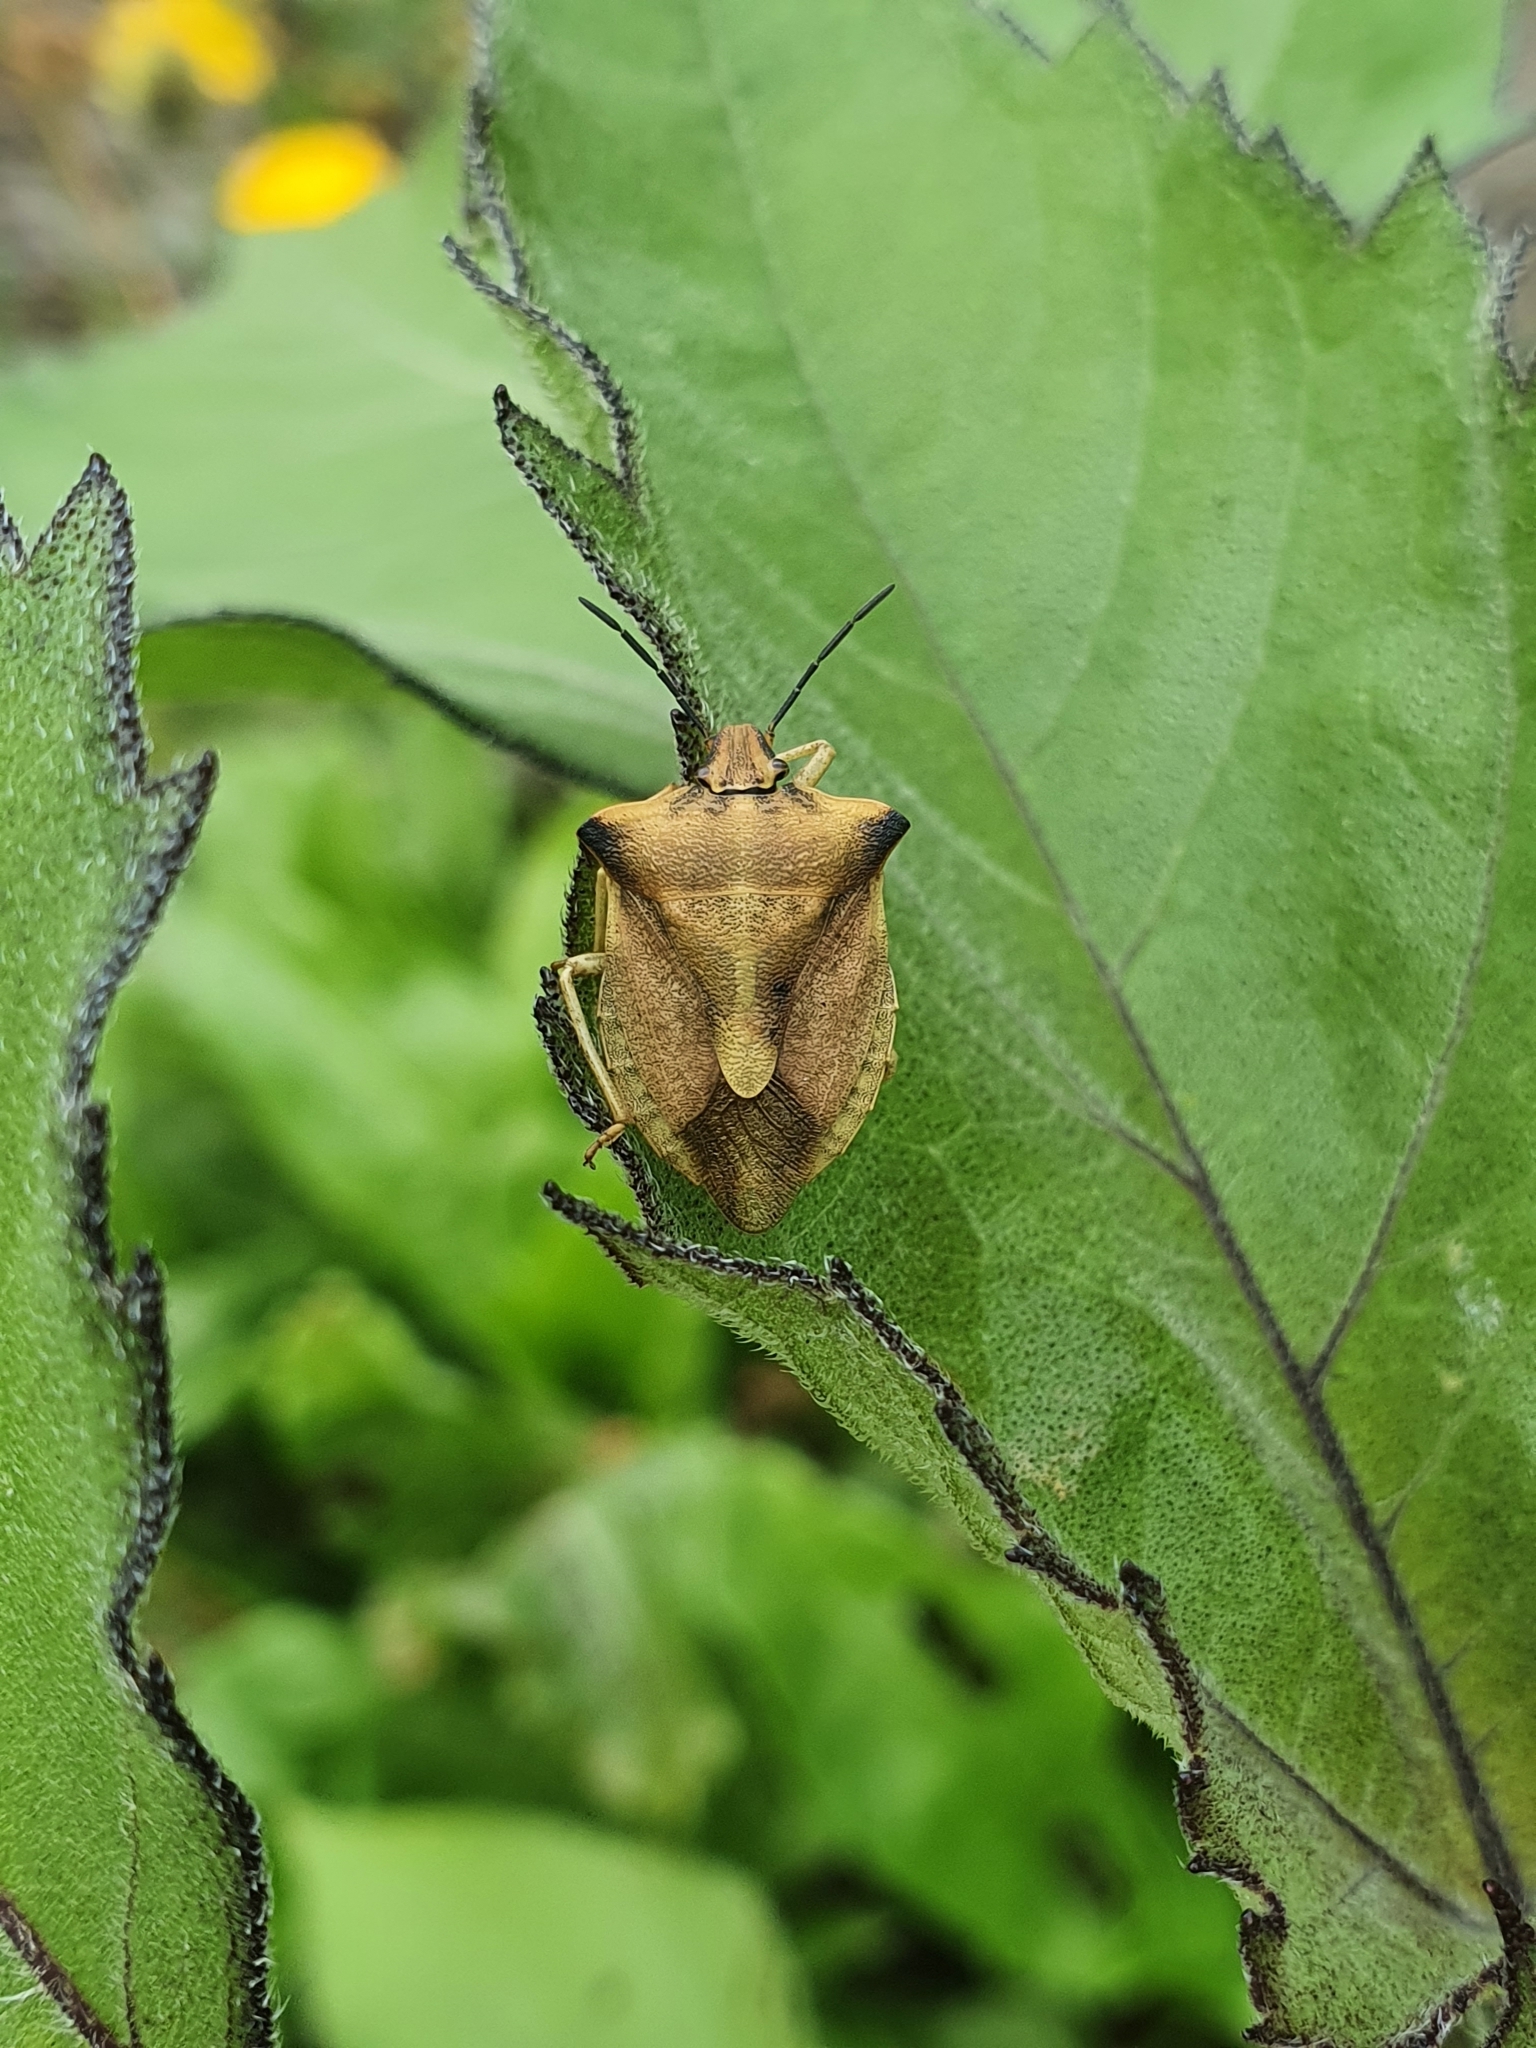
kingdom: Animalia
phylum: Arthropoda
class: Insecta
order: Hemiptera
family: Pentatomidae
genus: Carpocoris
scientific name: Carpocoris fuscispinus
